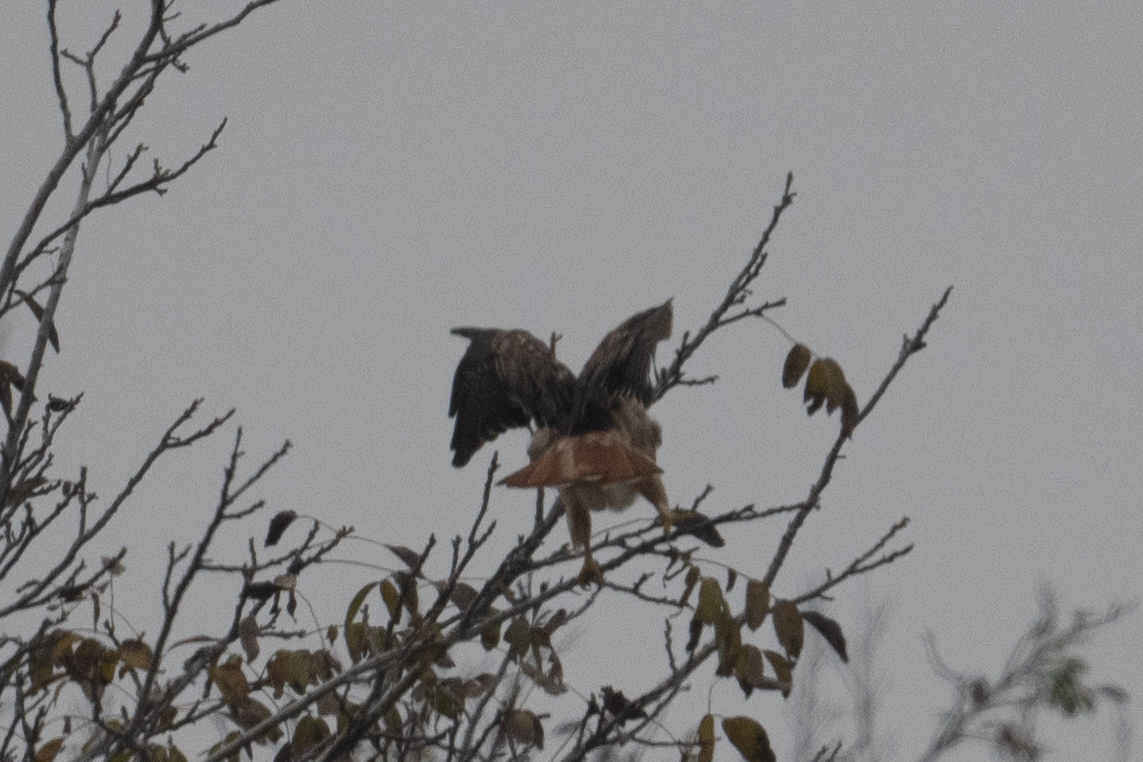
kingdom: Animalia
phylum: Chordata
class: Aves
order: Accipitriformes
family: Accipitridae
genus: Buteo
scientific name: Buteo jamaicensis
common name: Red-tailed hawk
